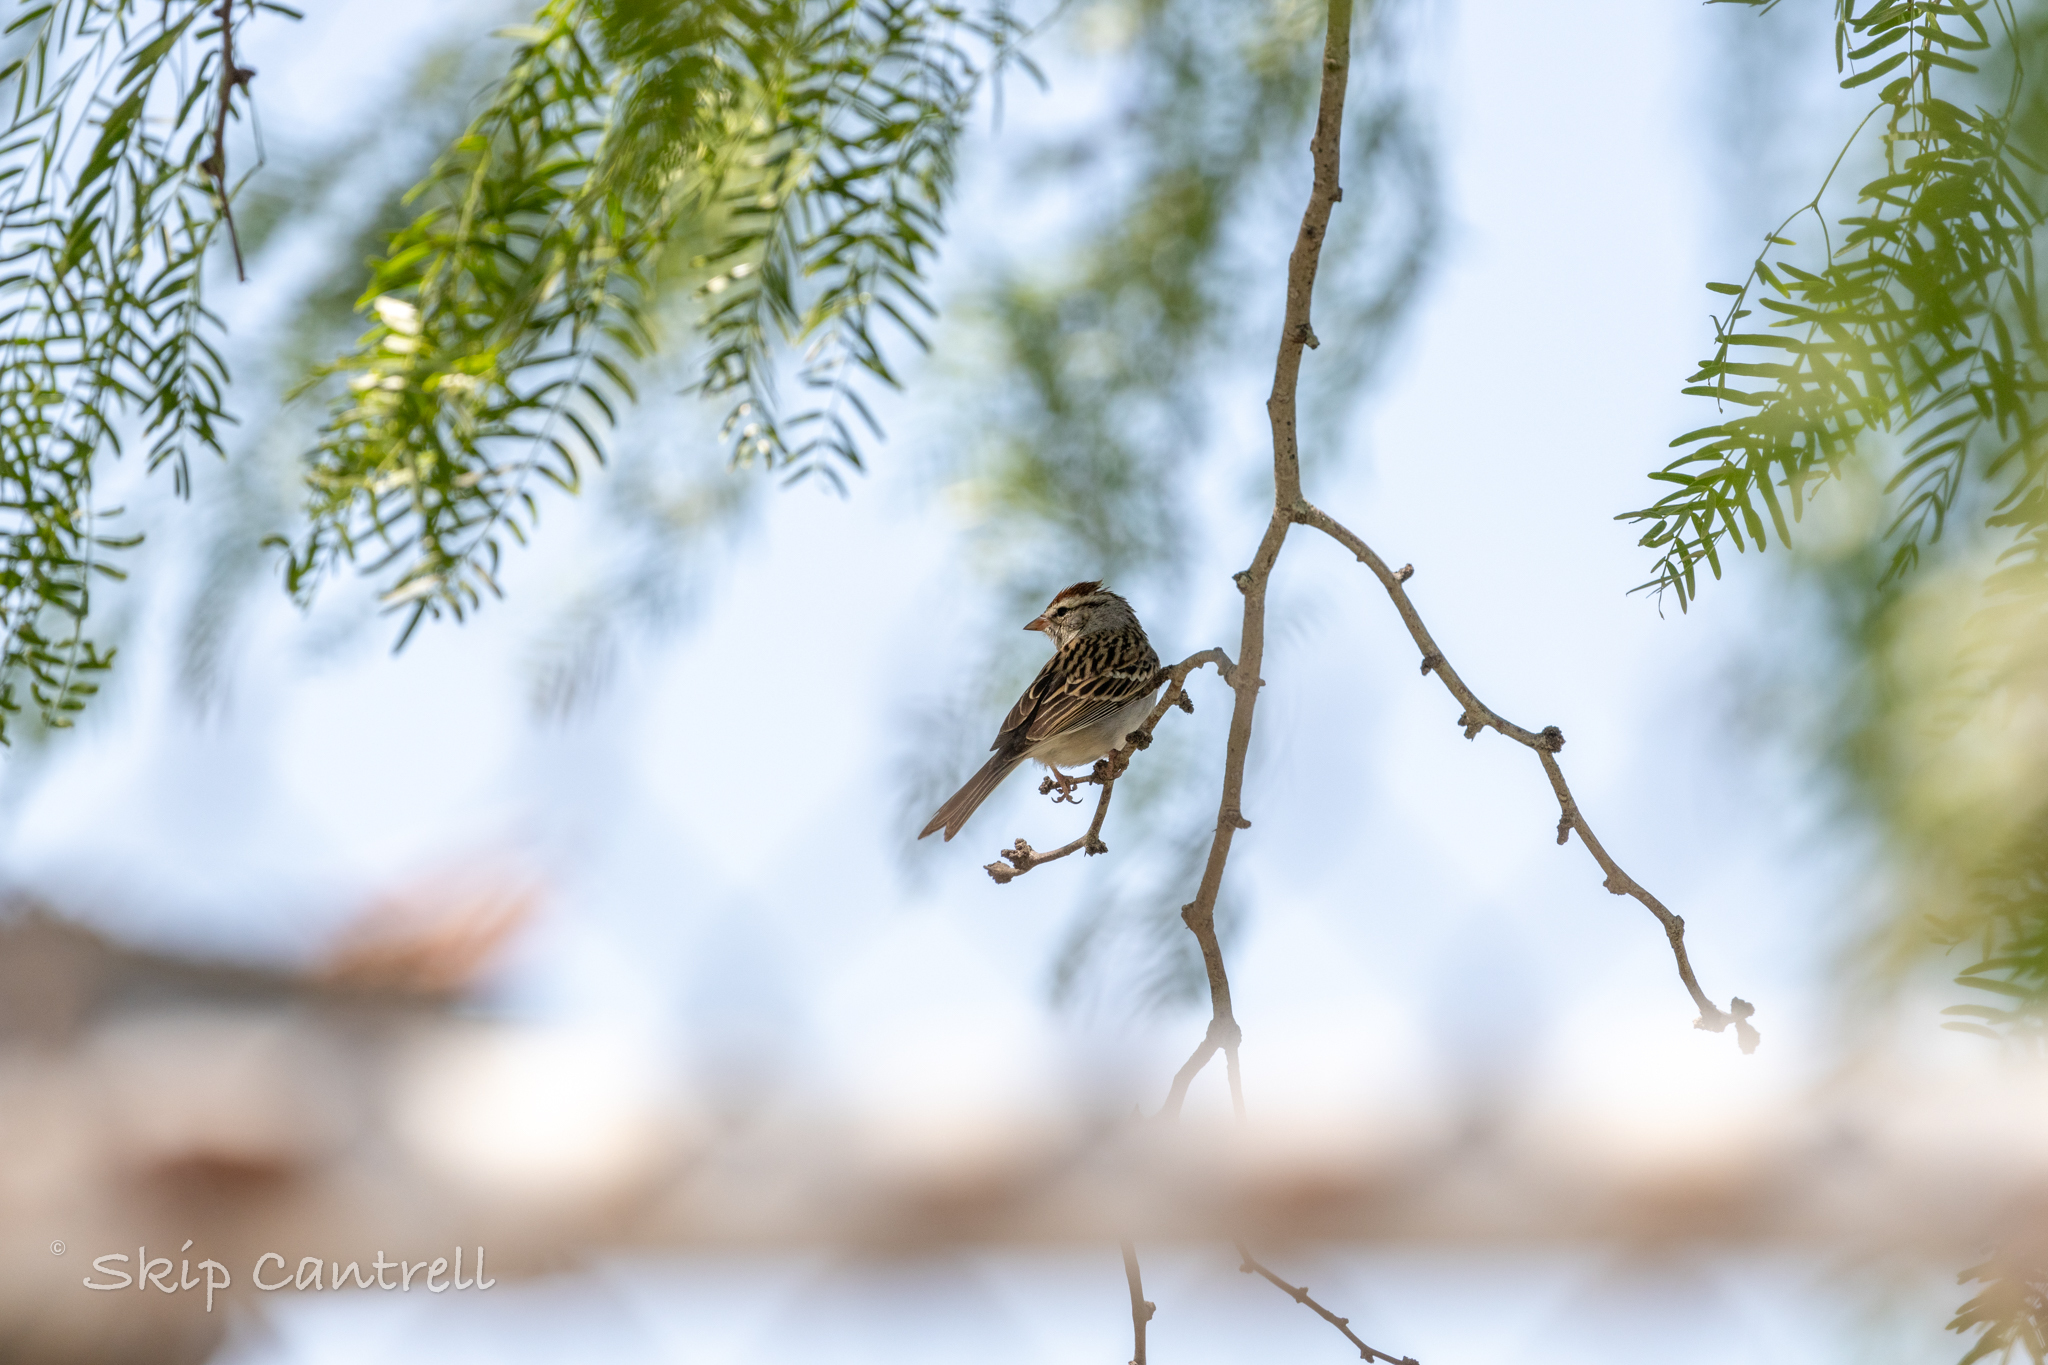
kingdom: Animalia
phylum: Chordata
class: Aves
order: Passeriformes
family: Passerellidae
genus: Spizella
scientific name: Spizella passerina
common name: Chipping sparrow
